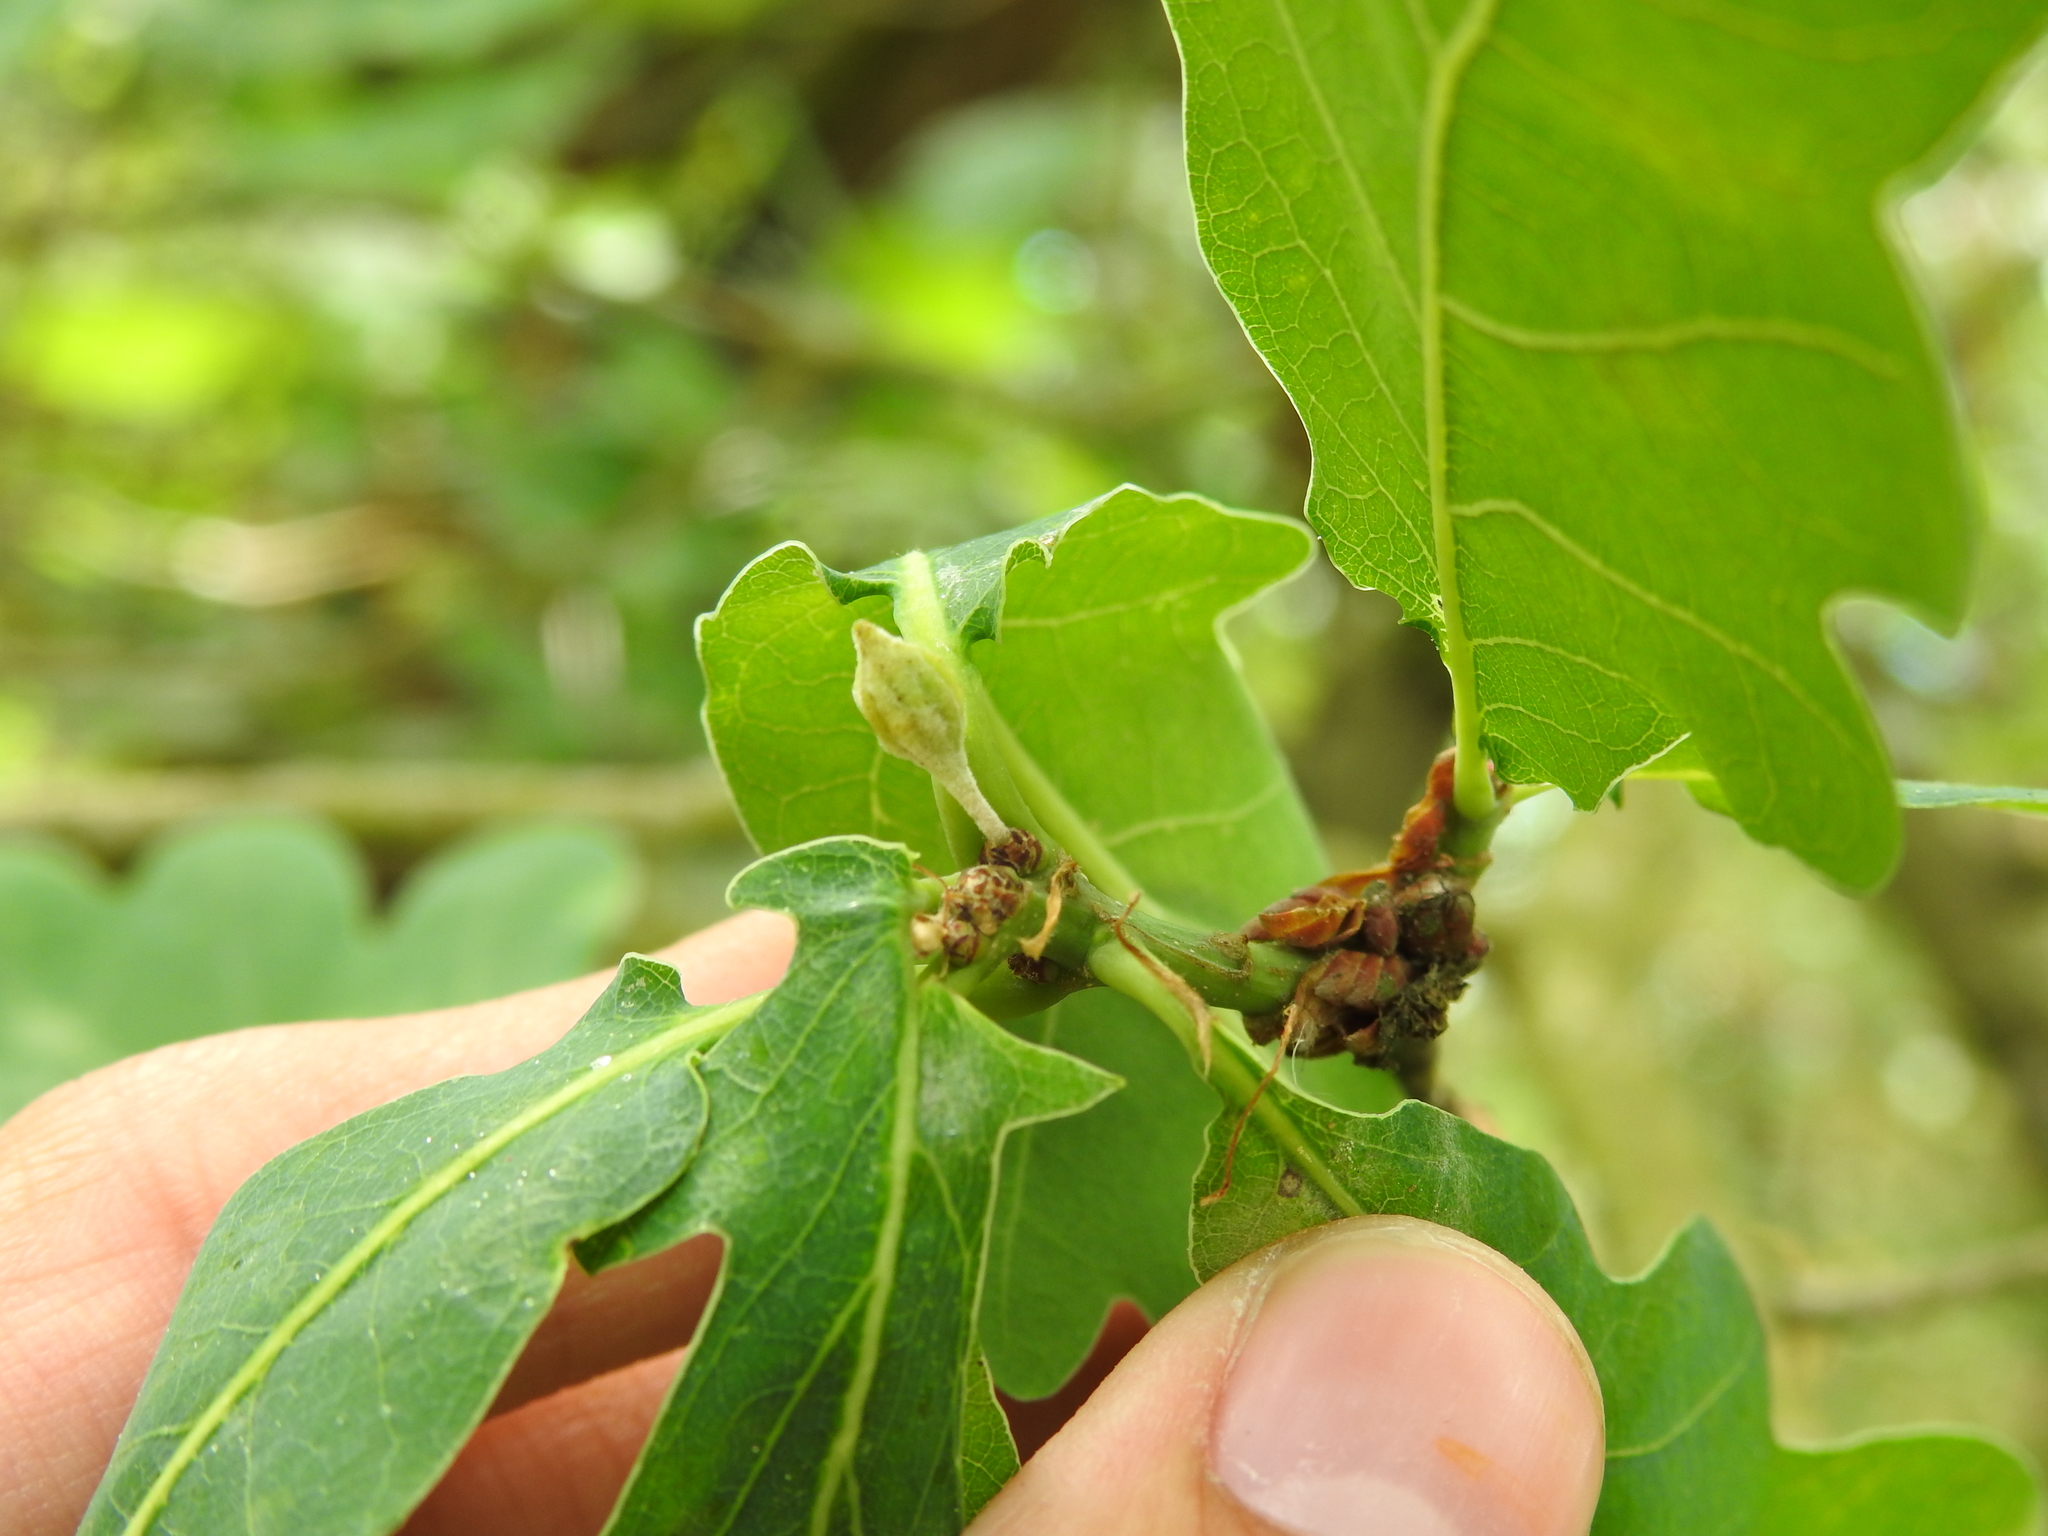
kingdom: Animalia
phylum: Arthropoda
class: Insecta
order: Hymenoptera
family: Cynipidae
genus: Andricus
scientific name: Andricus callidoma
